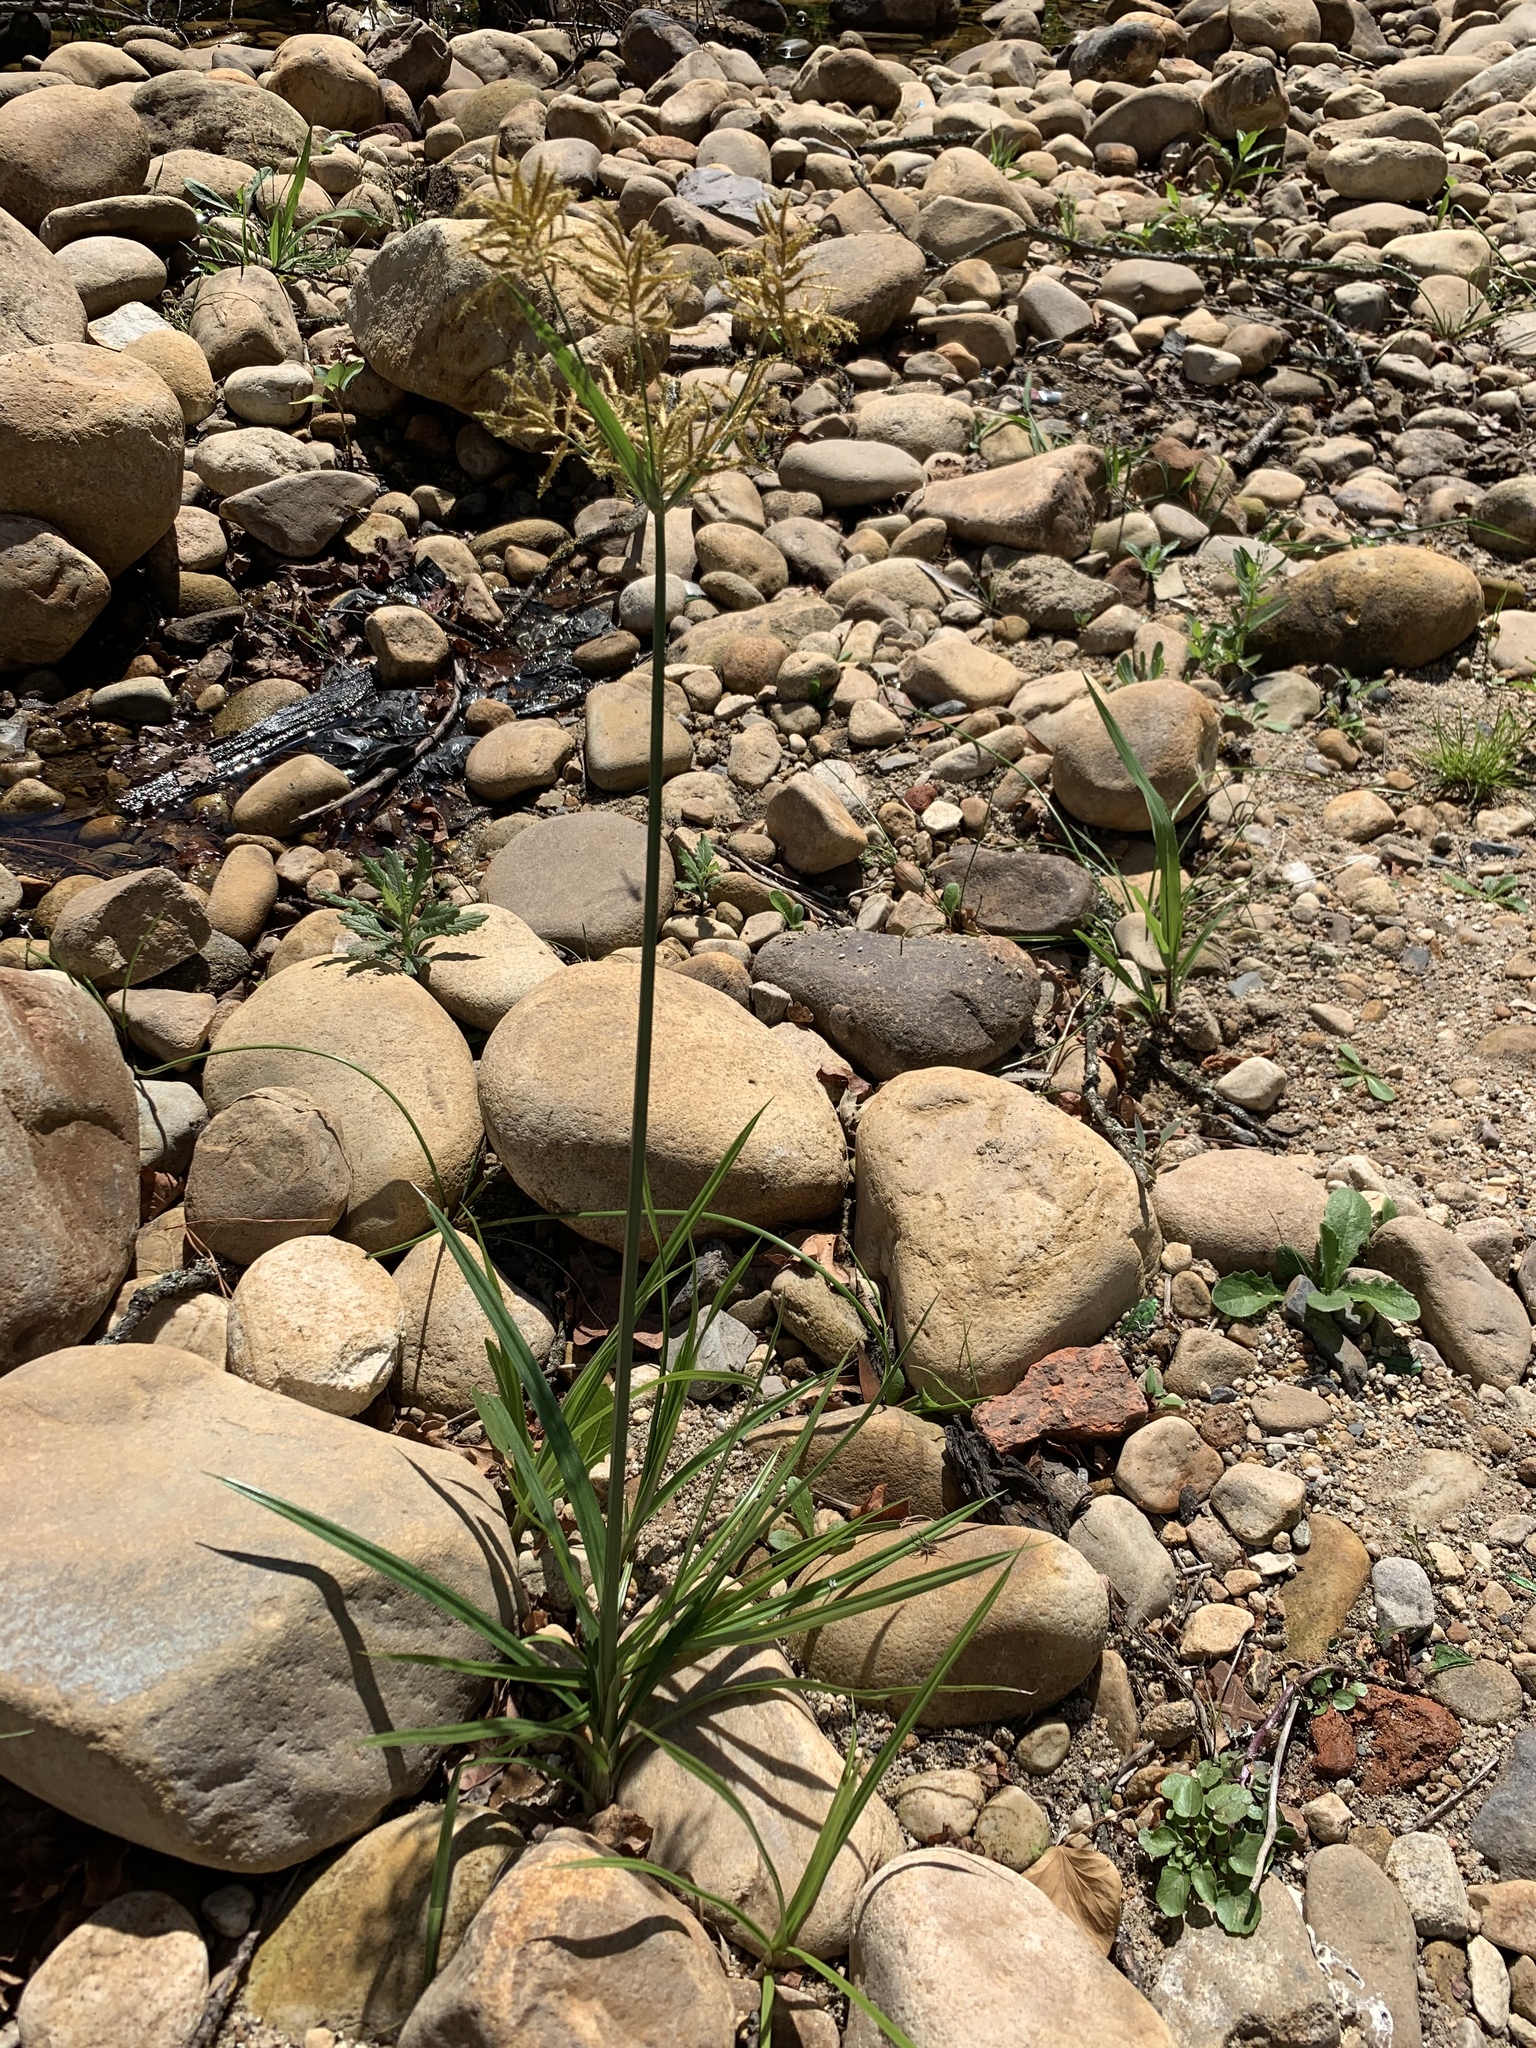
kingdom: Plantae
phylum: Tracheophyta
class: Liliopsida
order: Poales
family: Cyperaceae
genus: Cyperus
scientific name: Cyperus esculentus
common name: Yellow nutsedge
